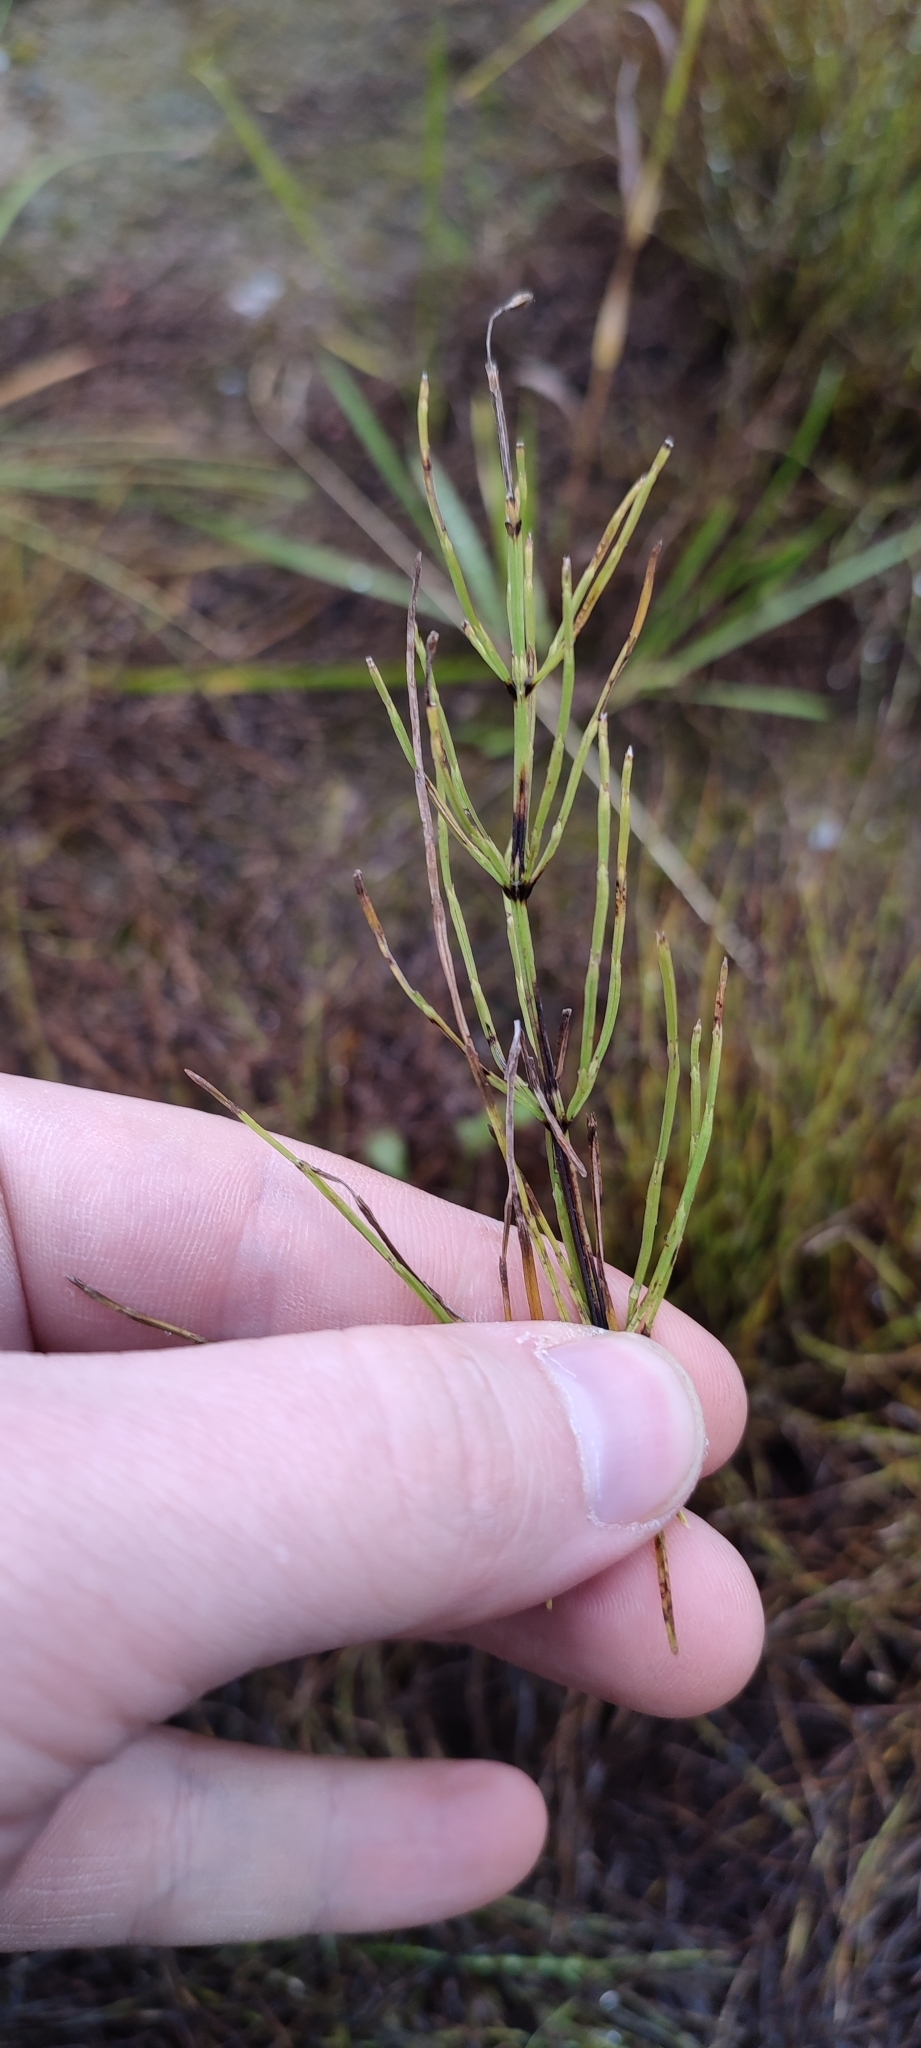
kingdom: Plantae
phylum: Tracheophyta
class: Polypodiopsida
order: Equisetales
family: Equisetaceae
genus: Equisetum
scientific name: Equisetum arvense
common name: Field horsetail
